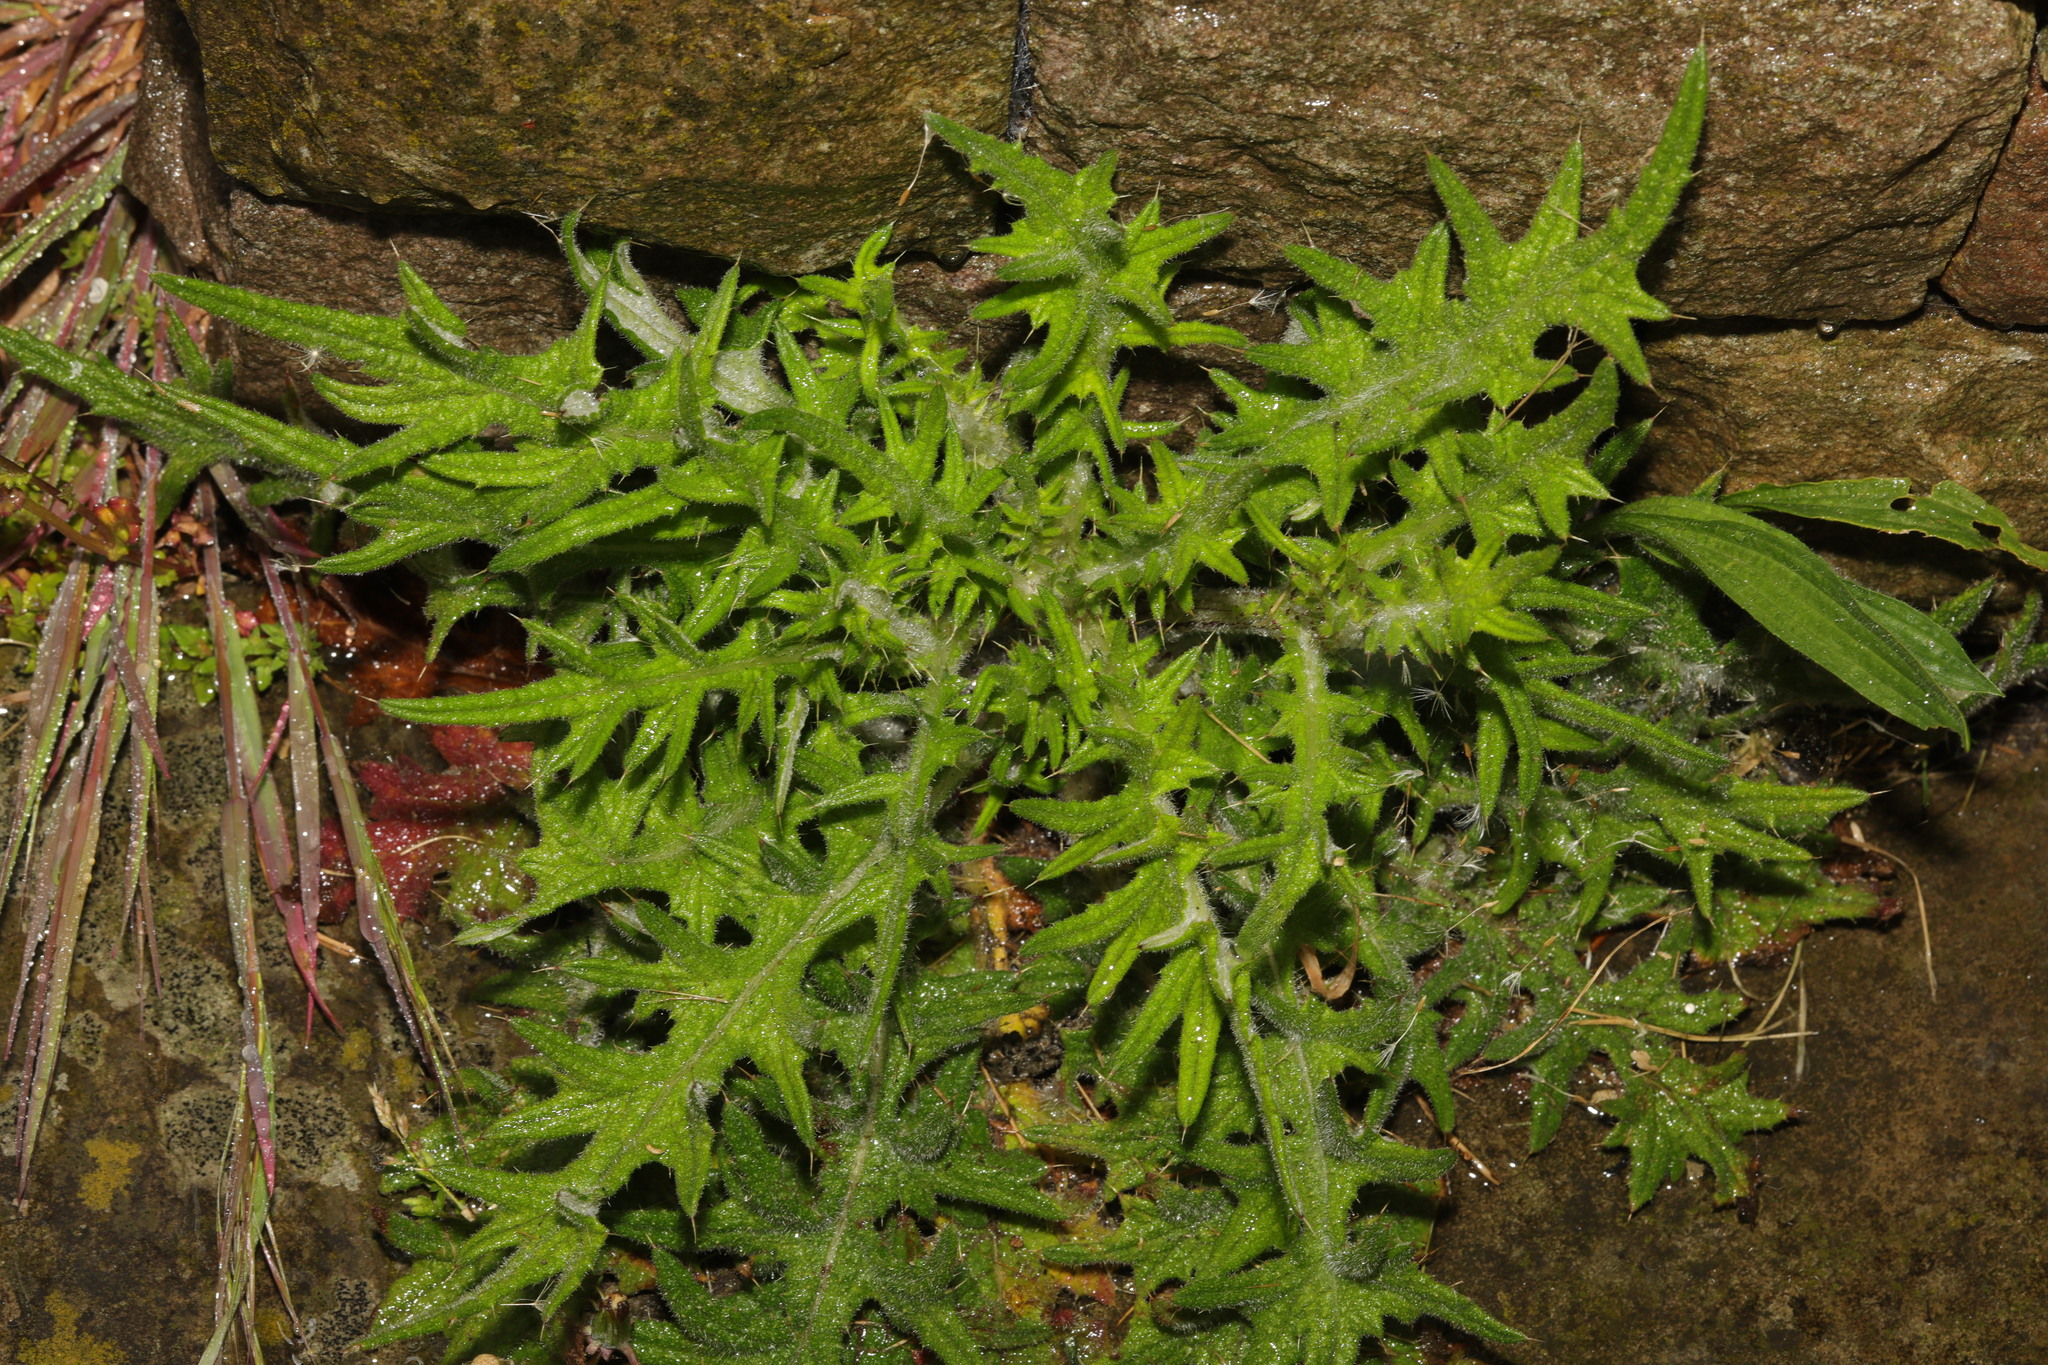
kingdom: Plantae
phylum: Tracheophyta
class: Magnoliopsida
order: Asterales
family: Asteraceae
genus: Cirsium
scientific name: Cirsium vulgare
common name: Bull thistle
